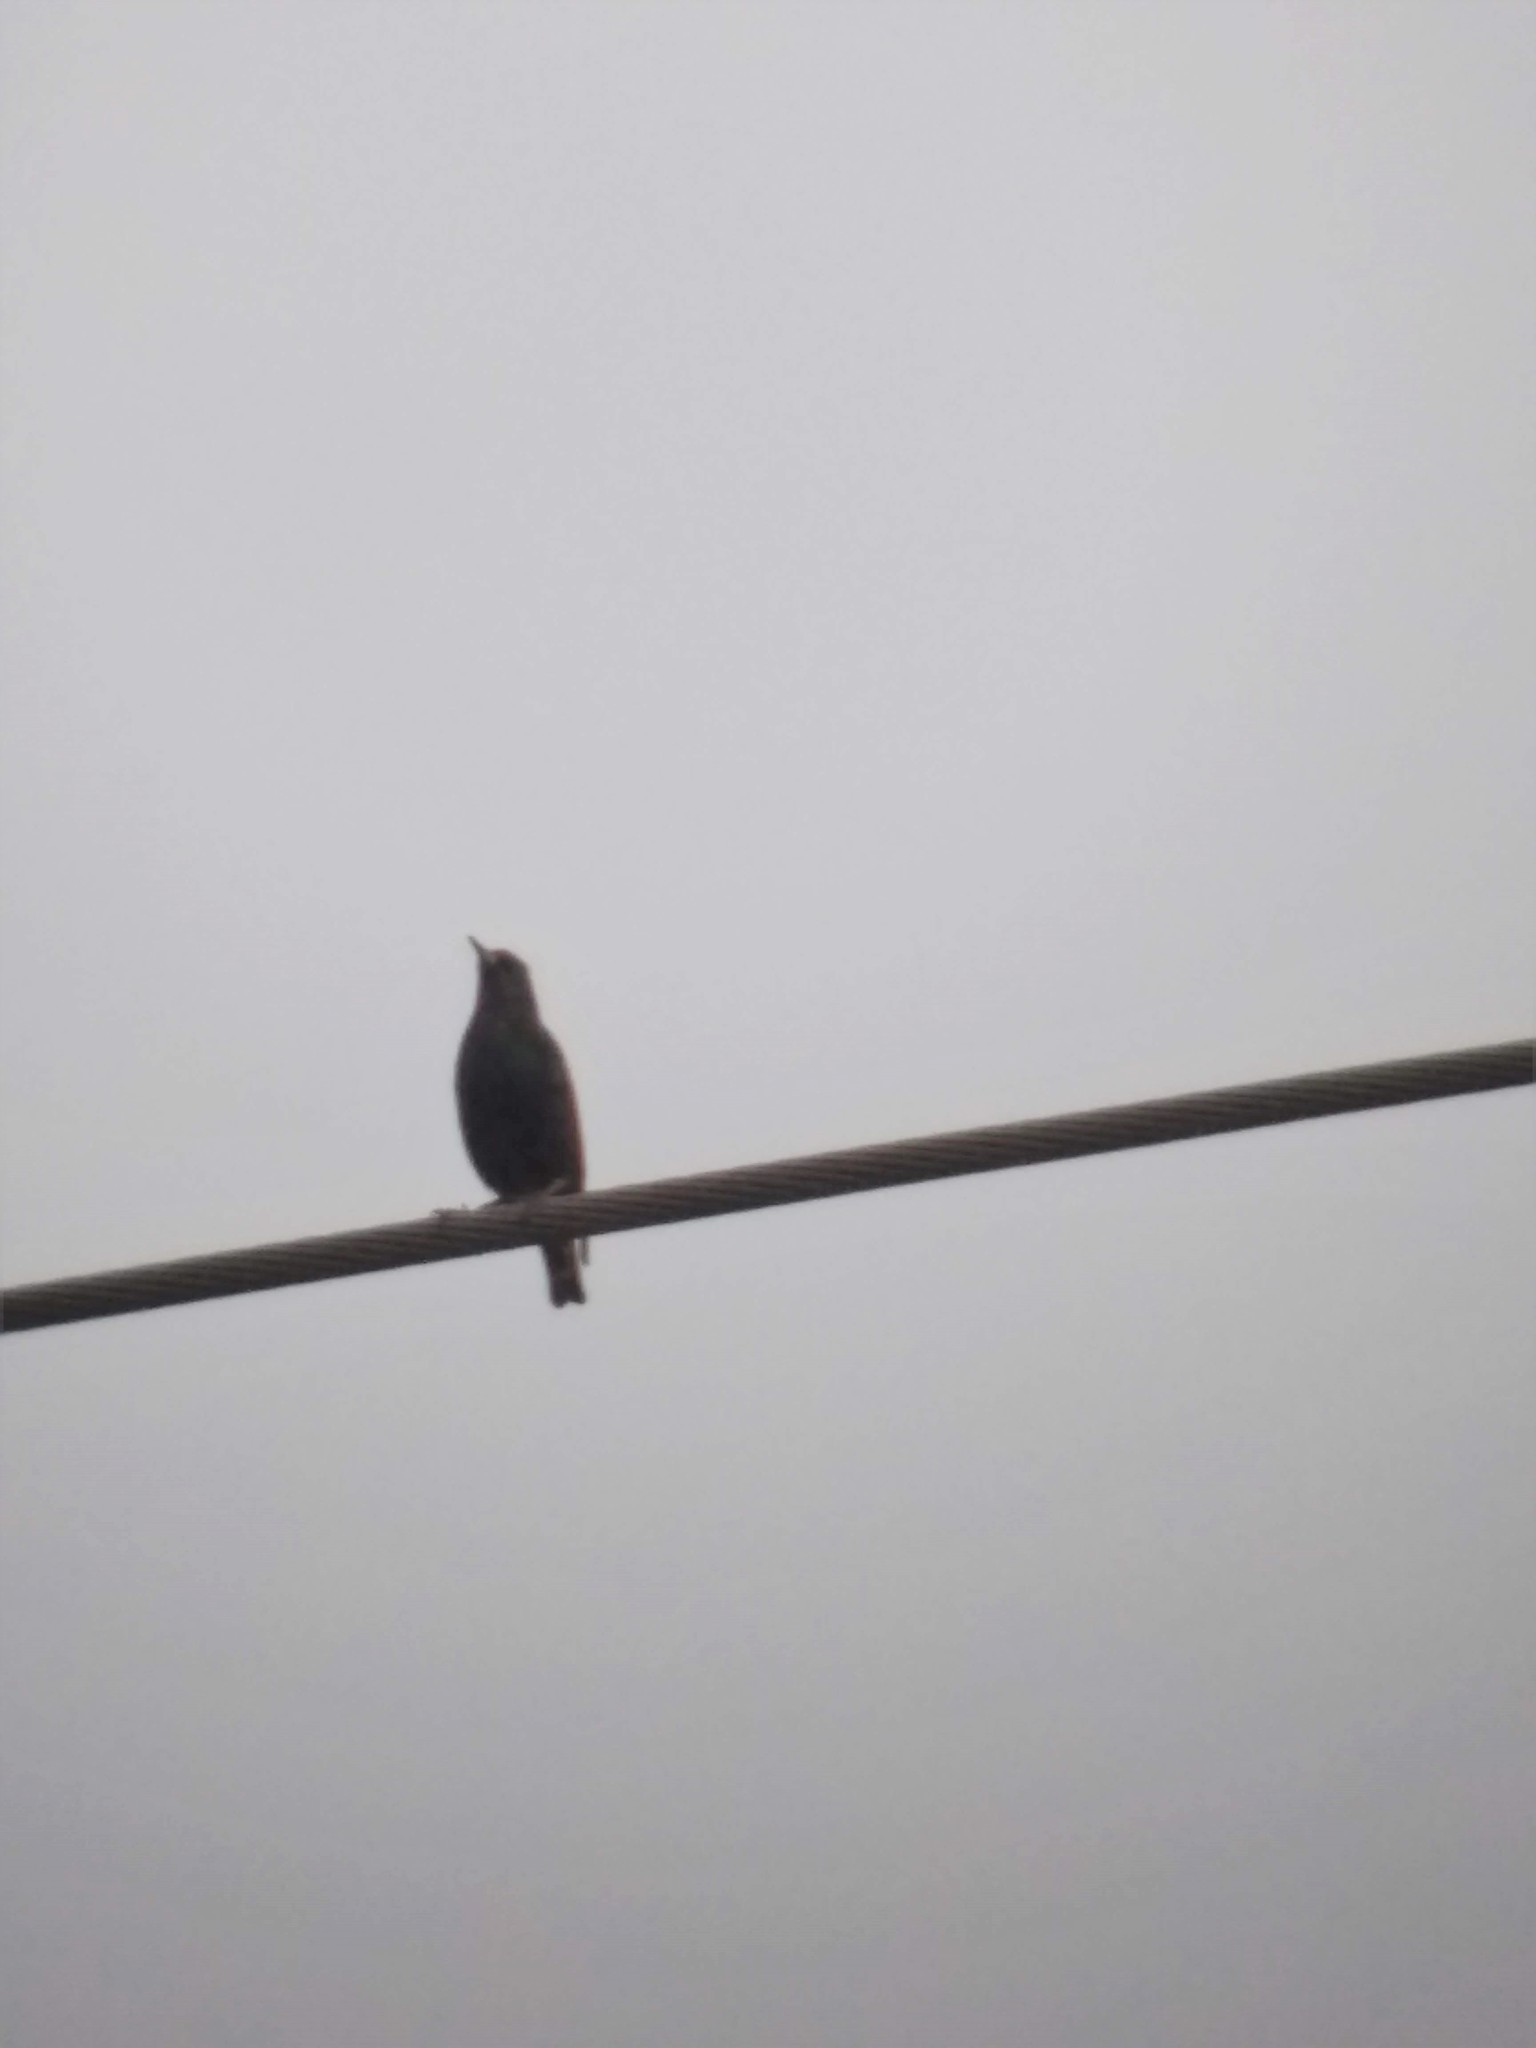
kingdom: Animalia
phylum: Chordata
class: Aves
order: Passeriformes
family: Sturnidae
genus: Sturnus
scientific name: Sturnus vulgaris
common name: Common starling
